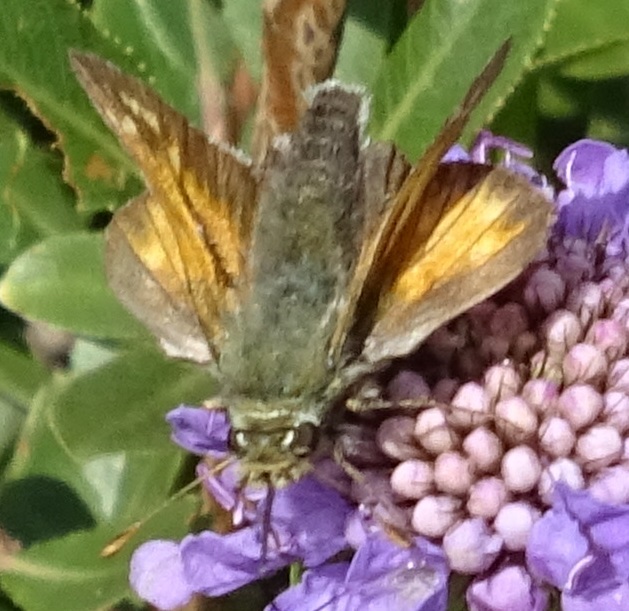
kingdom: Animalia
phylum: Arthropoda
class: Insecta
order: Lepidoptera
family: Hesperiidae
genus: Hesperia
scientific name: Hesperia comma
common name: Common branded skipper
